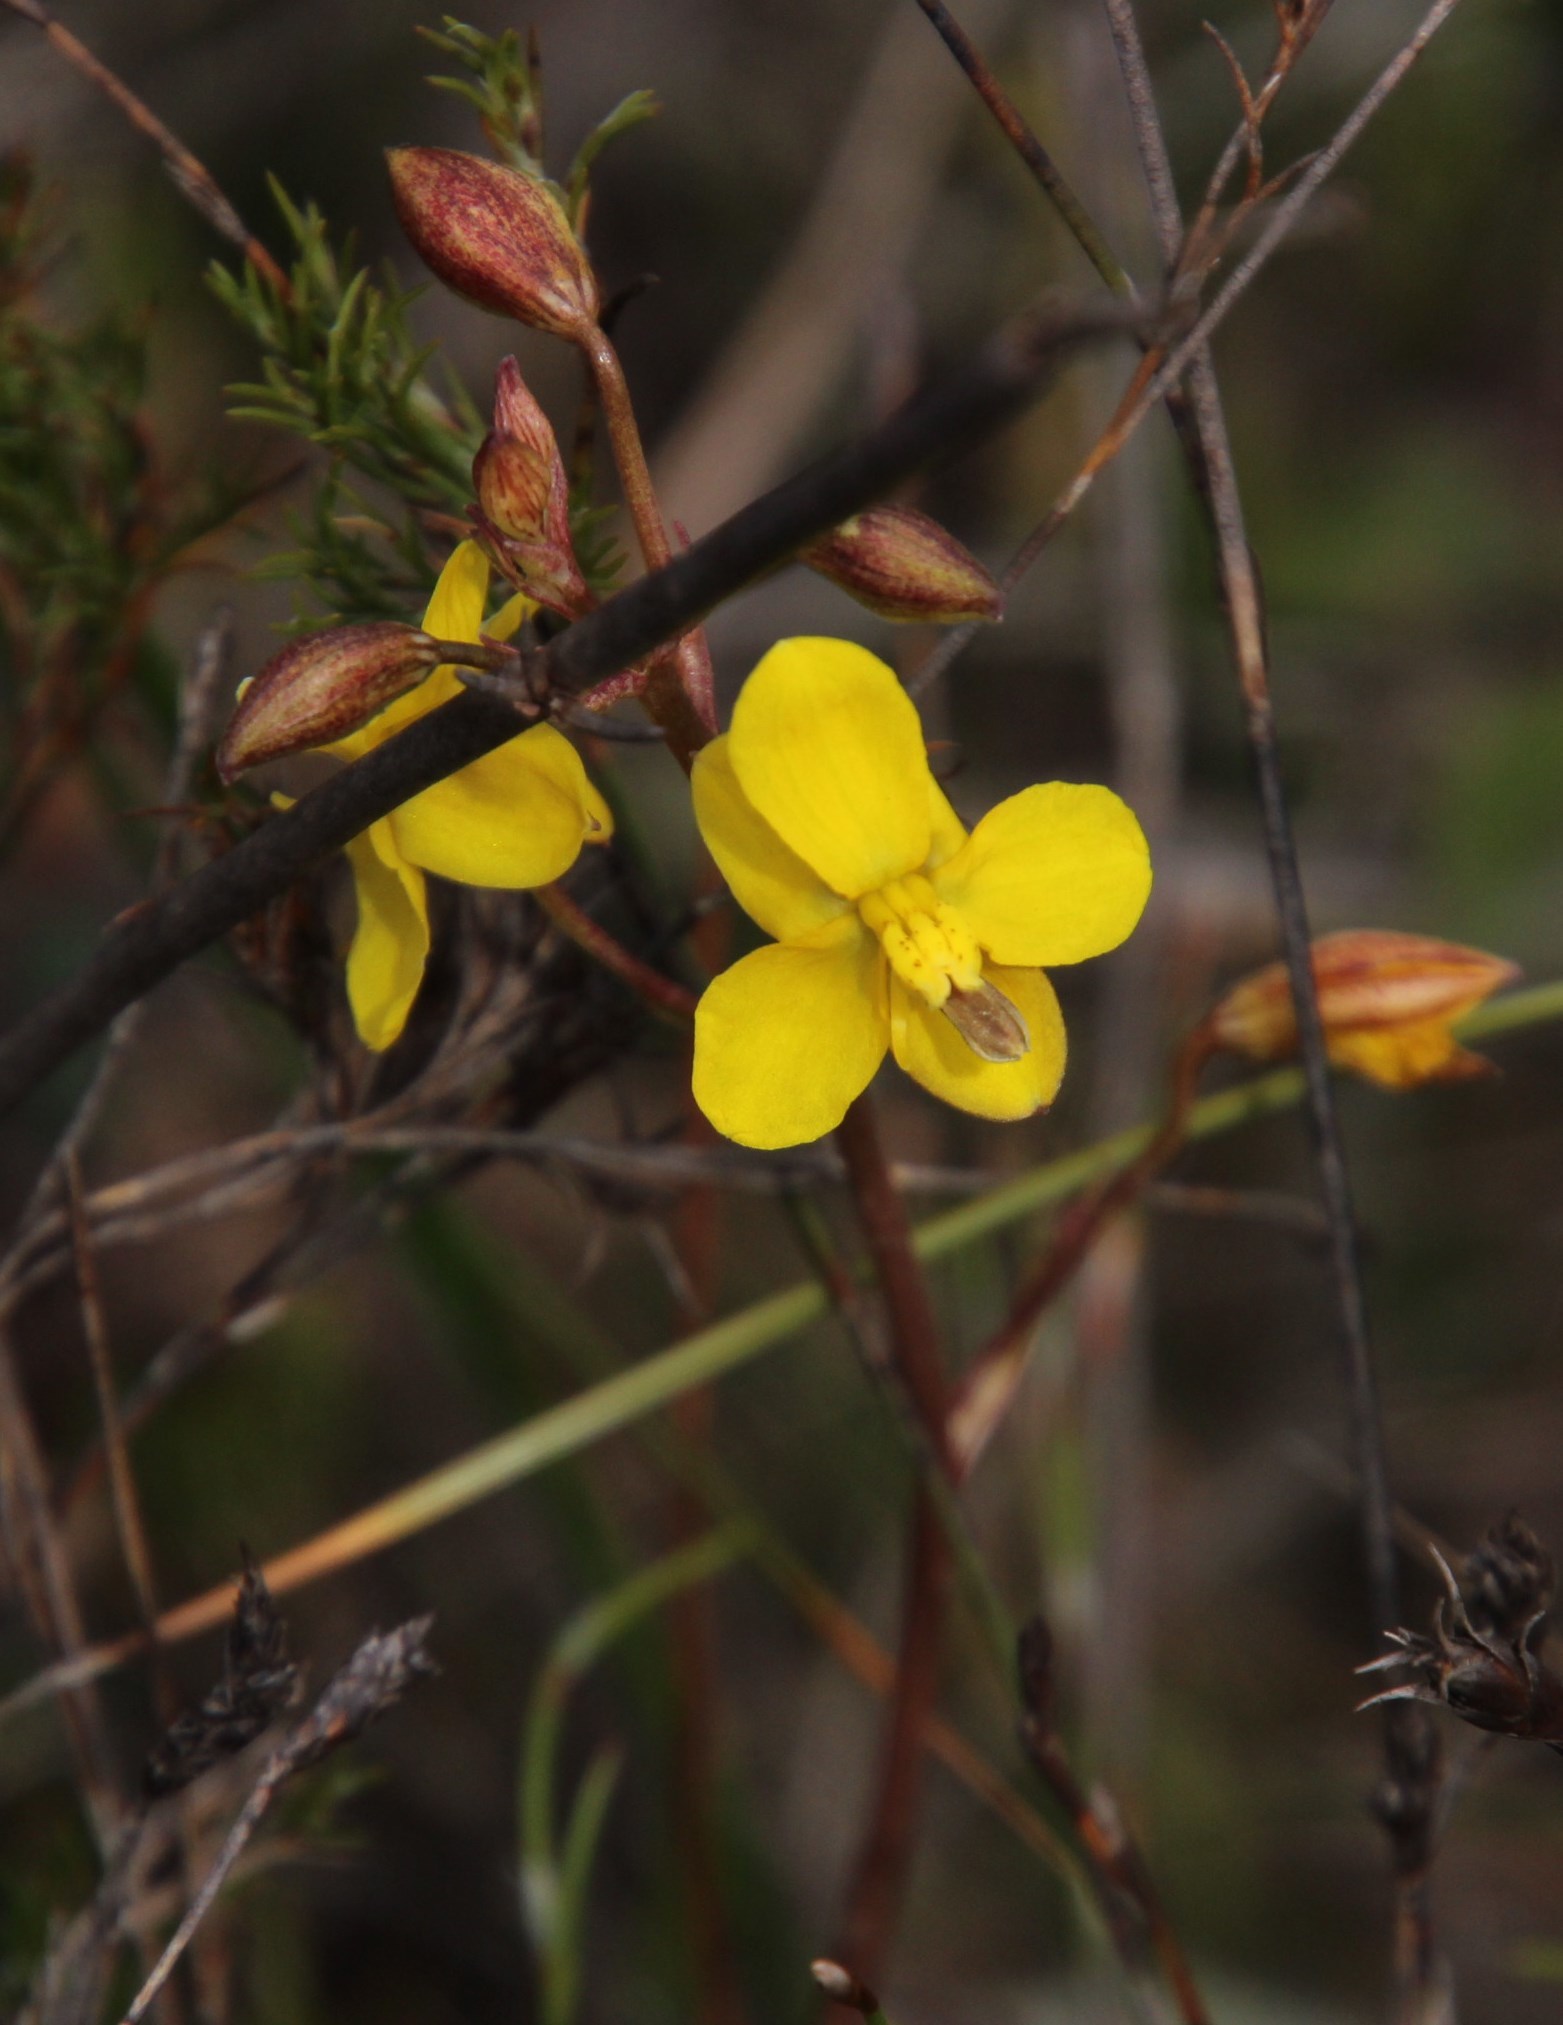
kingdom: Plantae
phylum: Tracheophyta
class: Liliopsida
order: Asparagales
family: Tecophilaeaceae
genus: Cyanella
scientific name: Cyanella lutea
